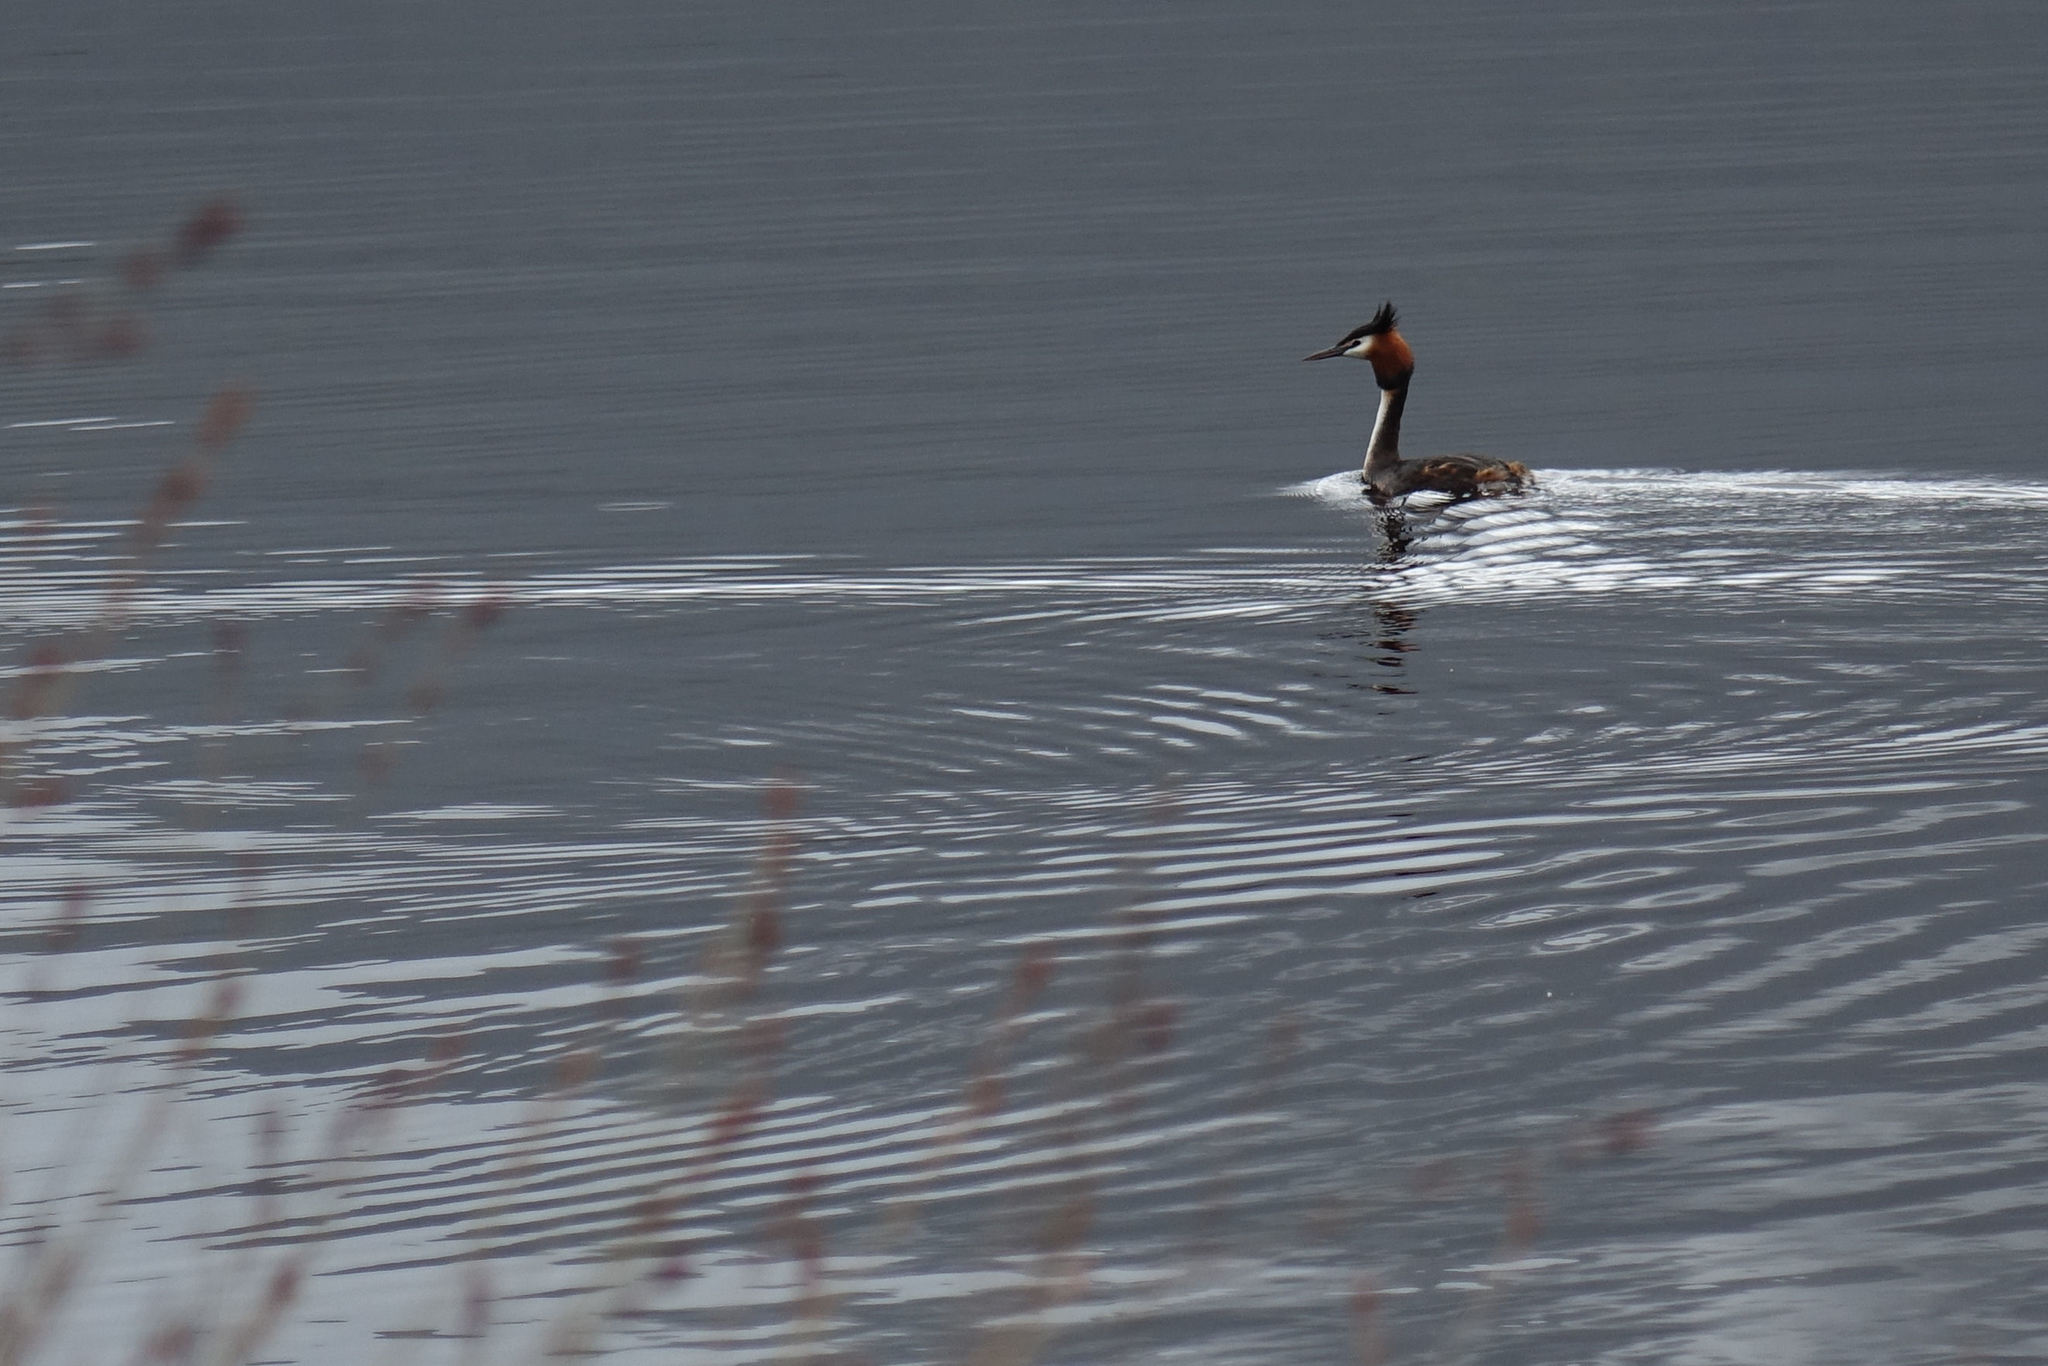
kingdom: Animalia
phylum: Chordata
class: Aves
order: Podicipediformes
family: Podicipedidae
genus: Podiceps
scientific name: Podiceps cristatus
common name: Great crested grebe
